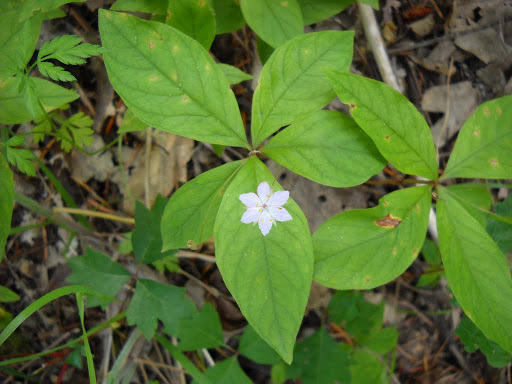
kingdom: Plantae
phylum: Tracheophyta
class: Magnoliopsida
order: Ericales
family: Primulaceae
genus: Lysimachia
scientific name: Lysimachia latifolia
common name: Pacific starflower
